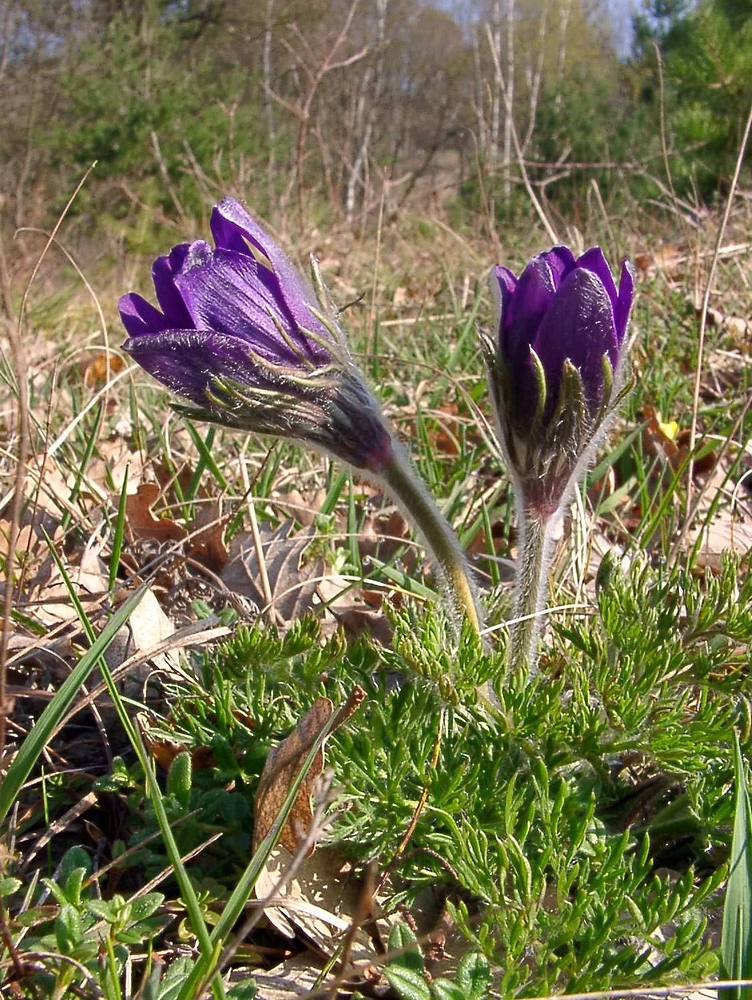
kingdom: Plantae
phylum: Tracheophyta
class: Magnoliopsida
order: Ranunculales
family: Ranunculaceae
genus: Pulsatilla
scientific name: Pulsatilla vulgaris
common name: Pasqueflower
